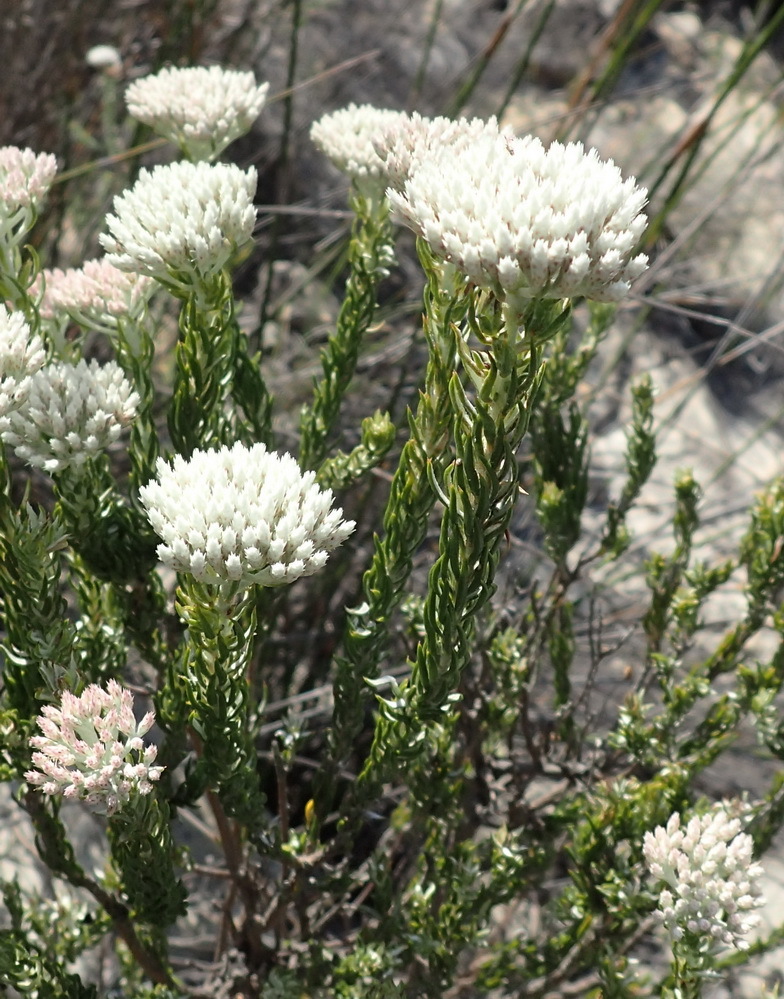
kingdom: Plantae
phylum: Tracheophyta
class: Magnoliopsida
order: Asterales
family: Asteraceae
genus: Metalasia
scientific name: Metalasia pallida
